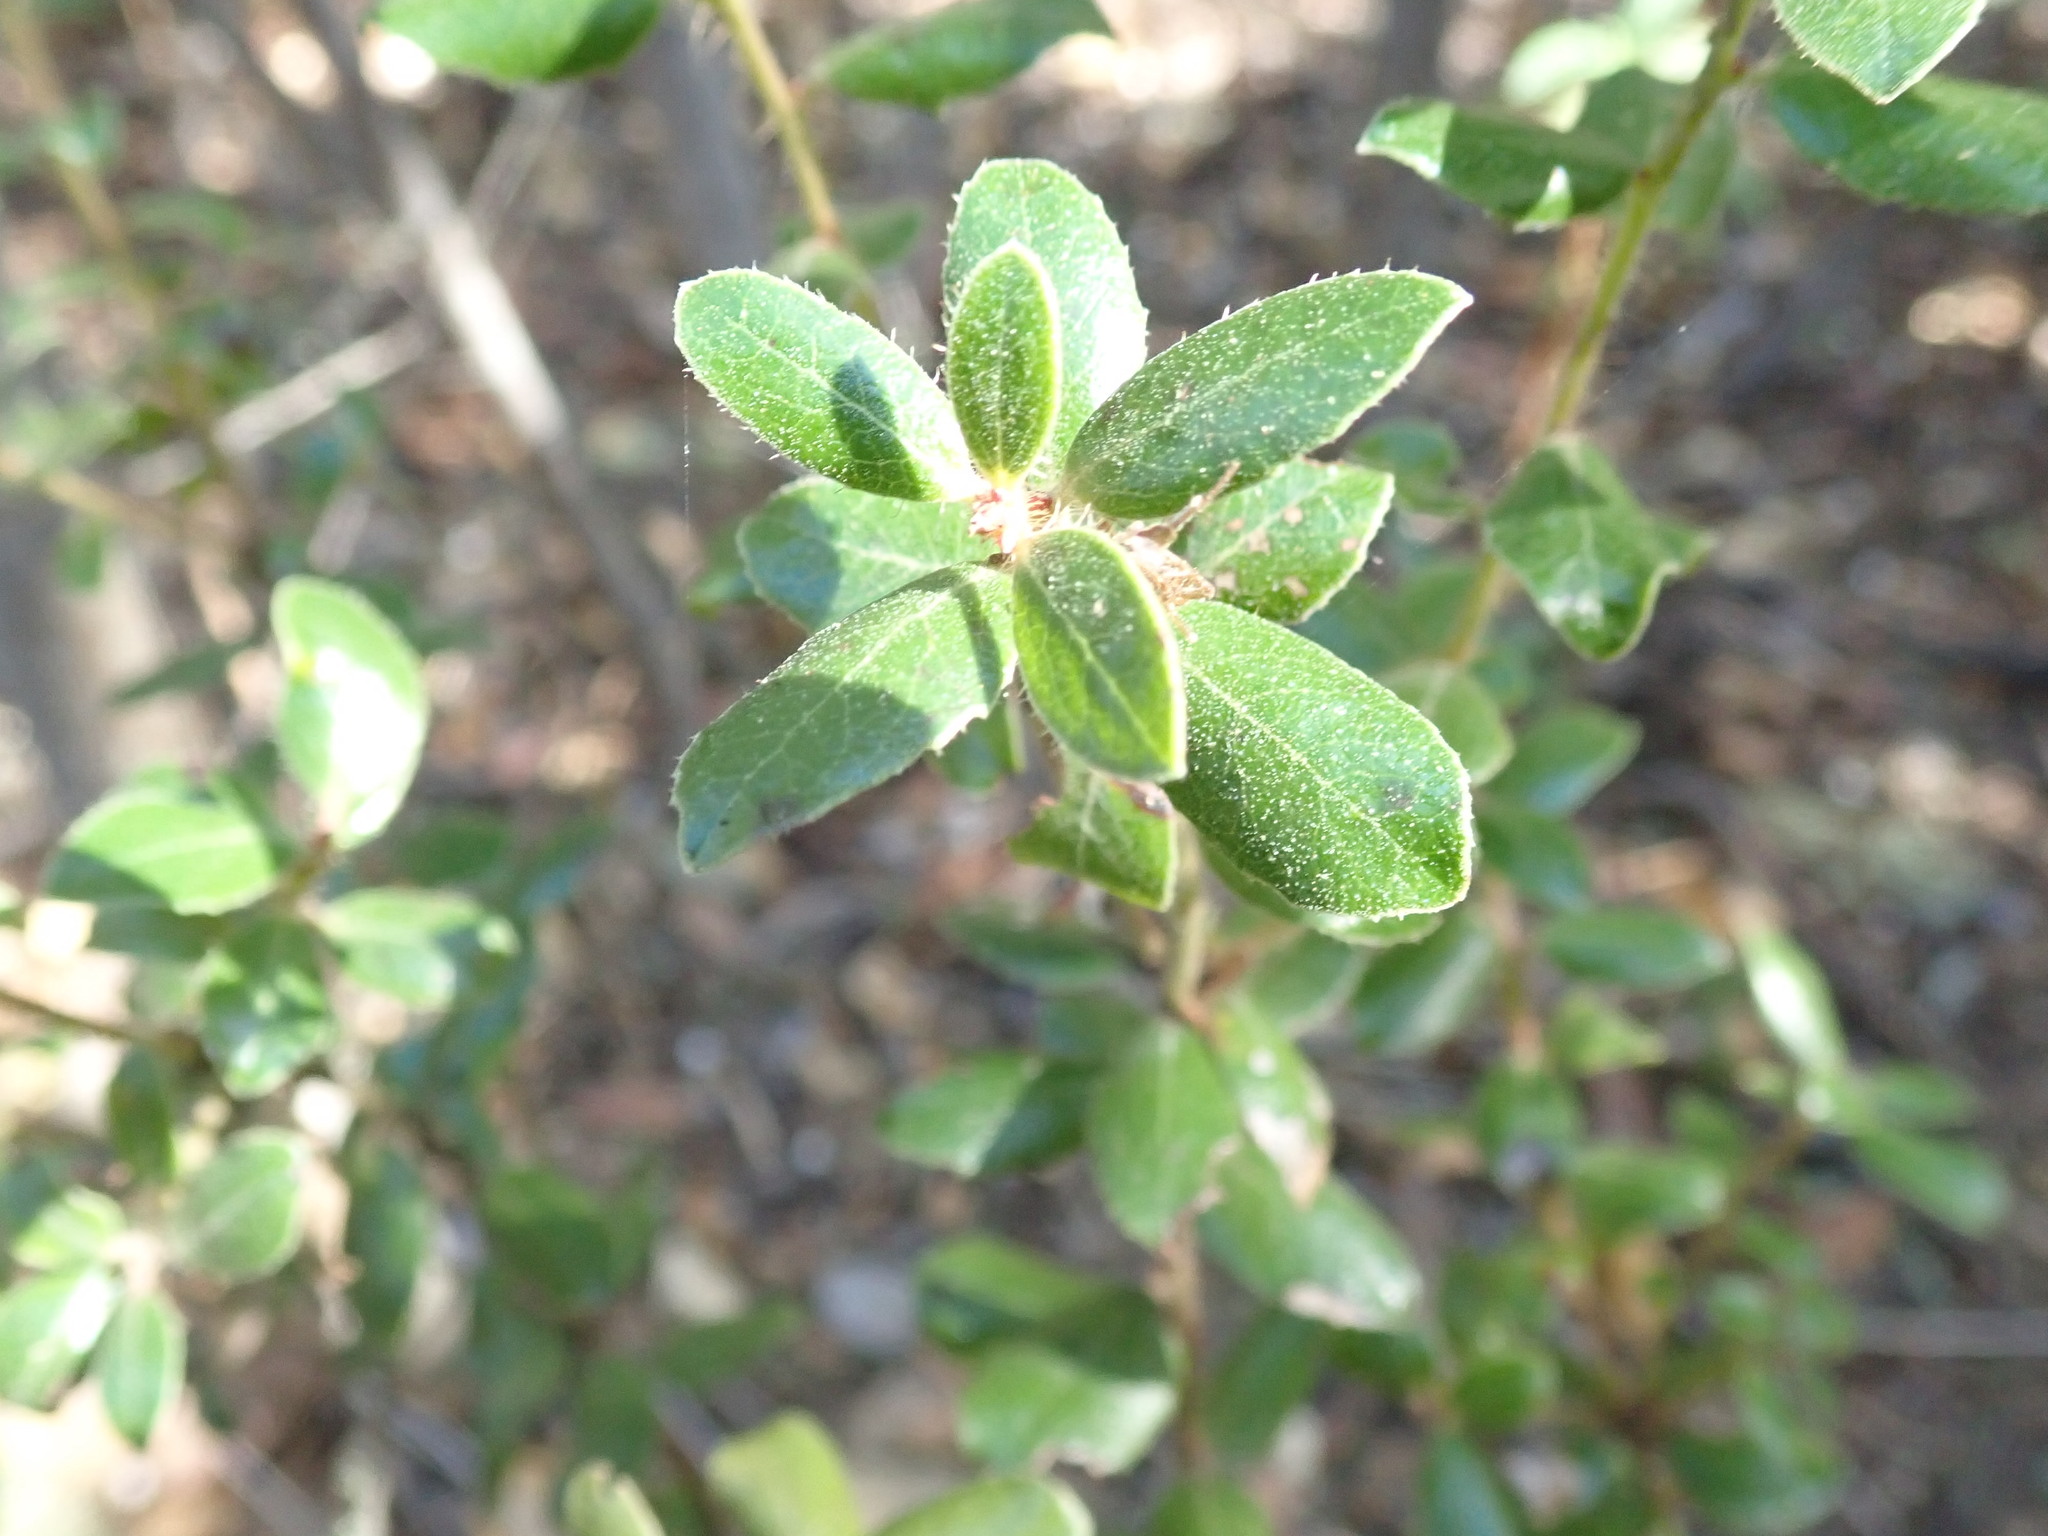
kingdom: Plantae
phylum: Tracheophyta
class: Magnoliopsida
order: Ericales
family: Ericaceae
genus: Arctostaphylos
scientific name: Arctostaphylos nummularia
